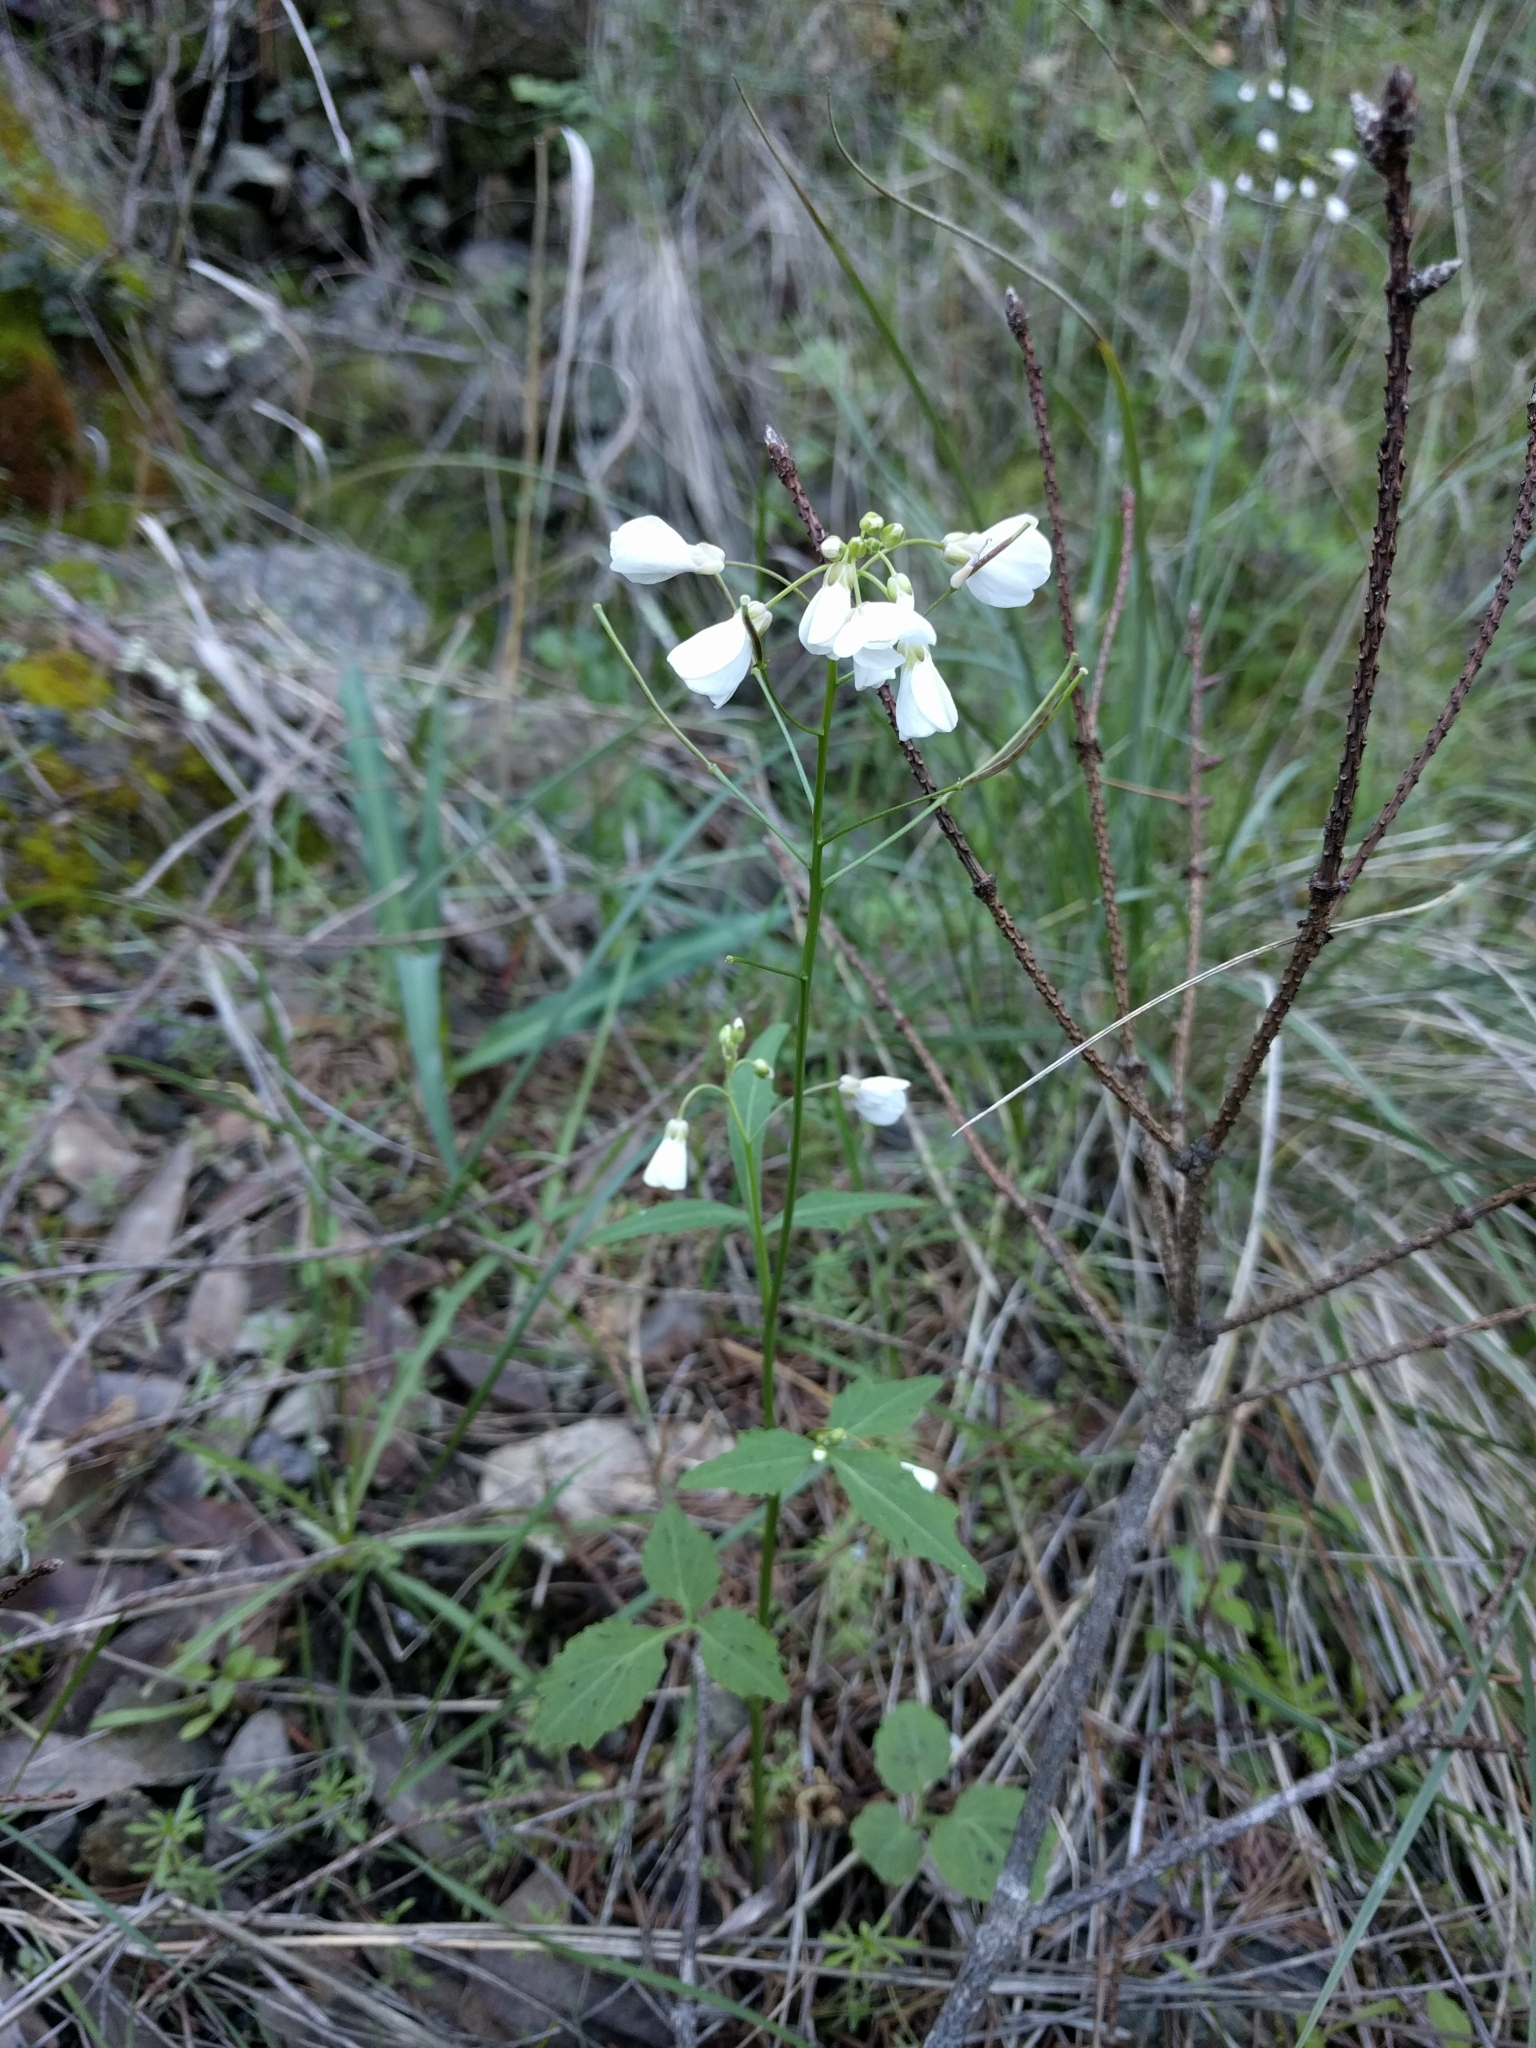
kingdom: Plantae
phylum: Tracheophyta
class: Magnoliopsida
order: Brassicales
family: Brassicaceae
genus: Cardamine
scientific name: Cardamine californica
